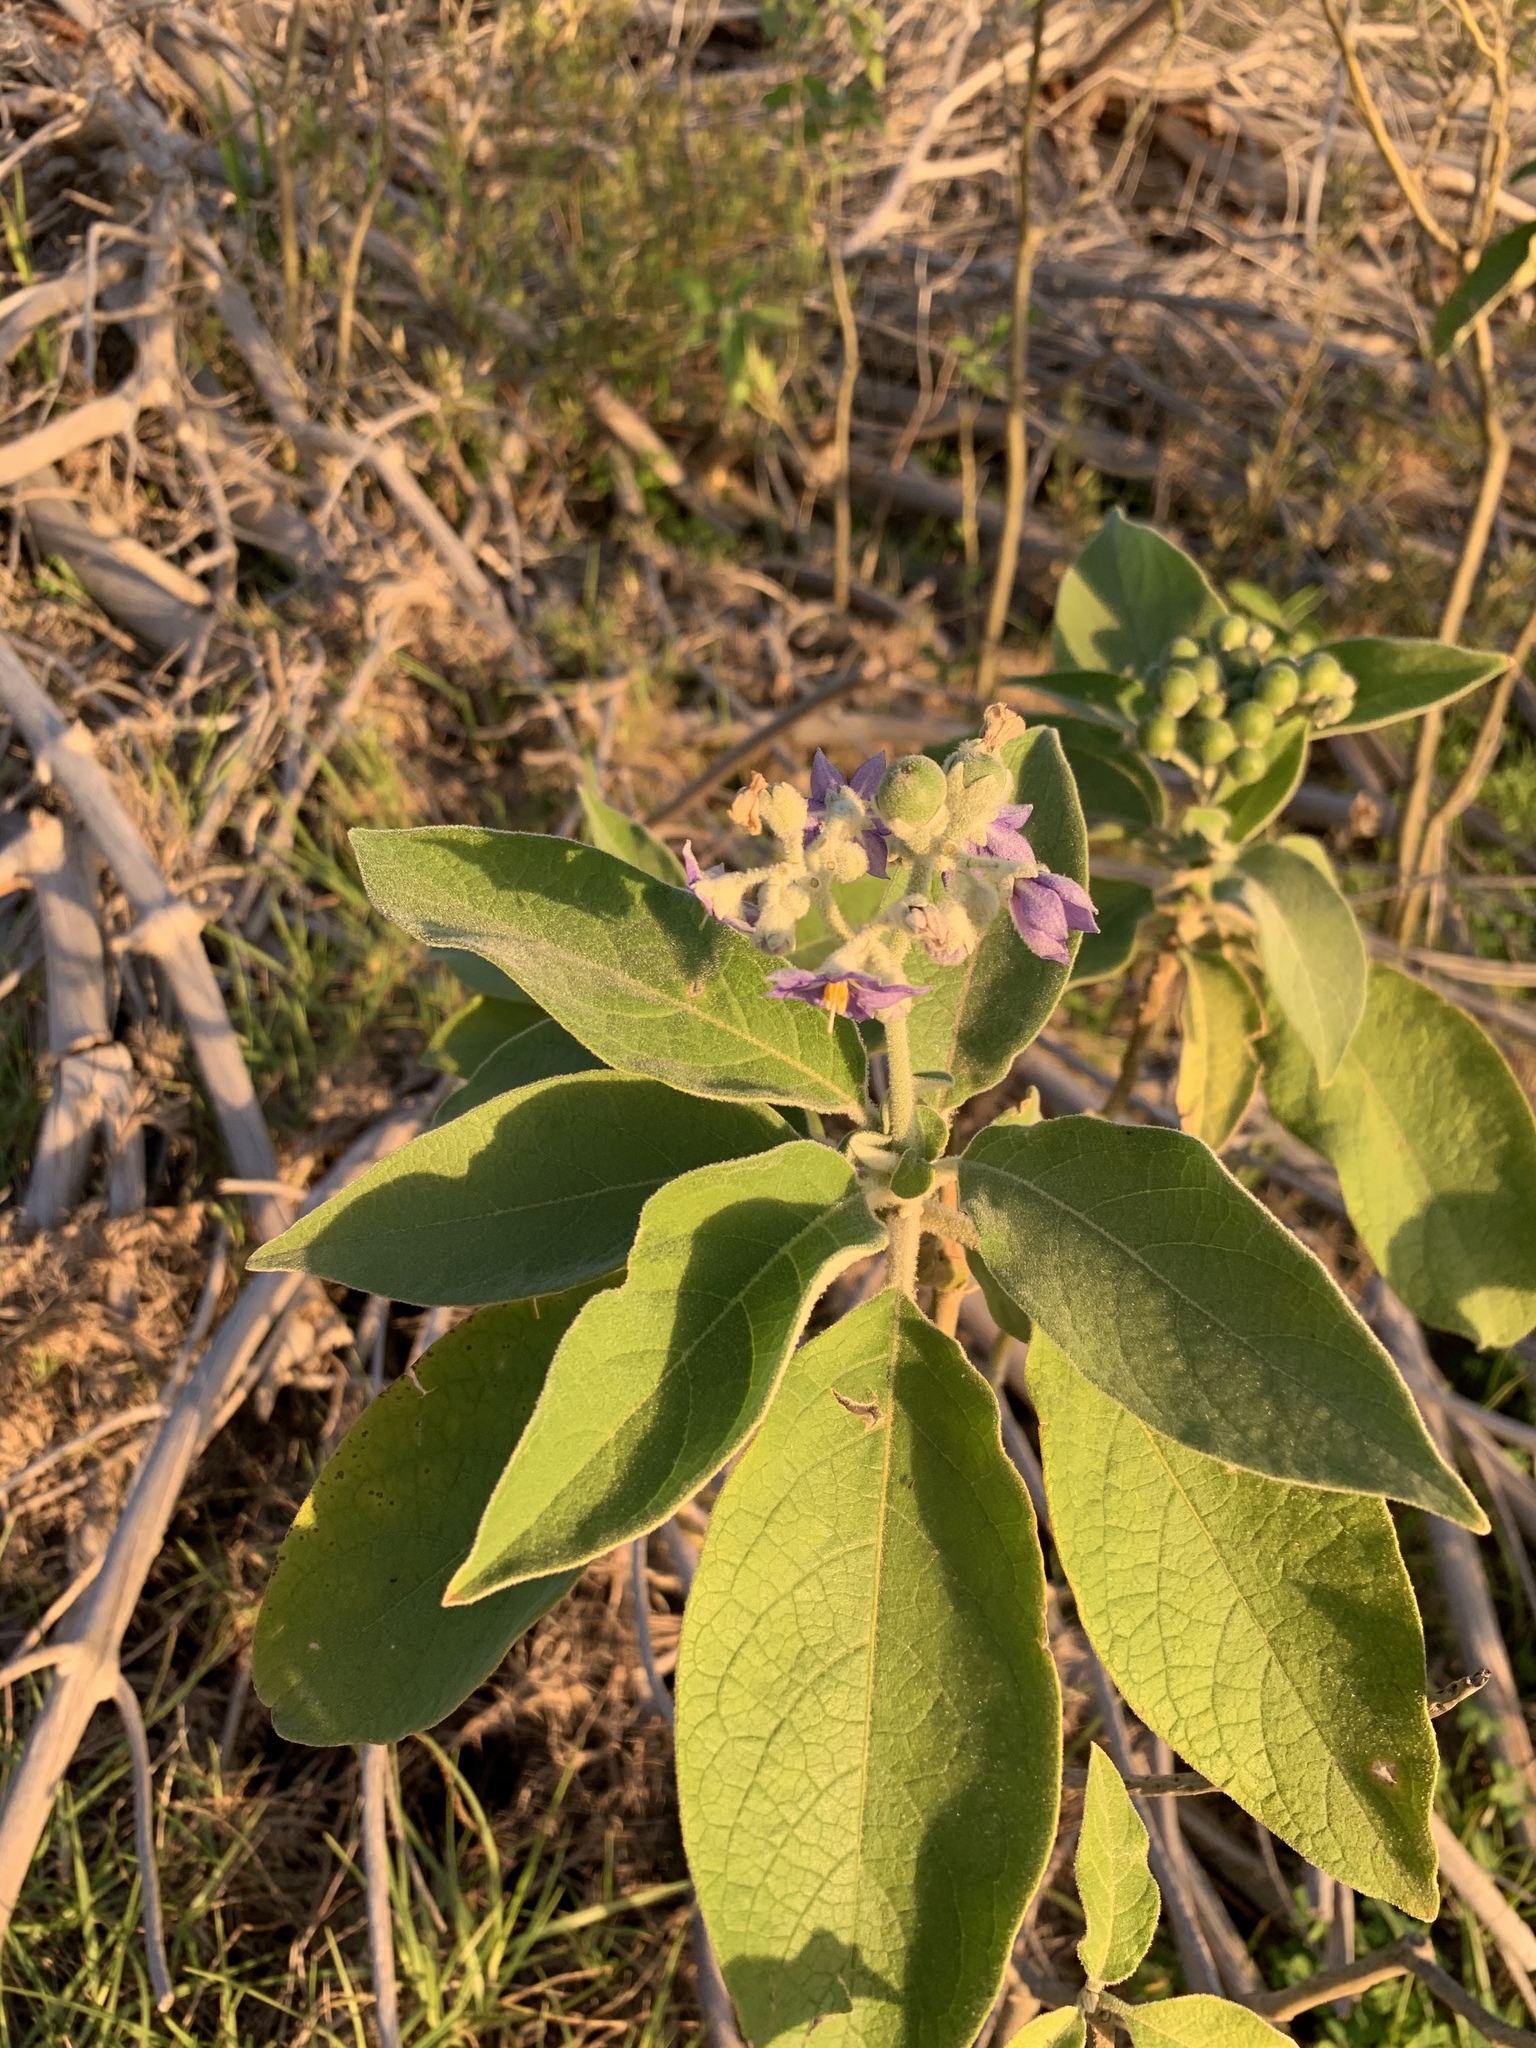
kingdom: Plantae
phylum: Tracheophyta
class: Magnoliopsida
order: Solanales
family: Solanaceae
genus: Solanum
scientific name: Solanum mauritianum
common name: Earleaf nightshade
